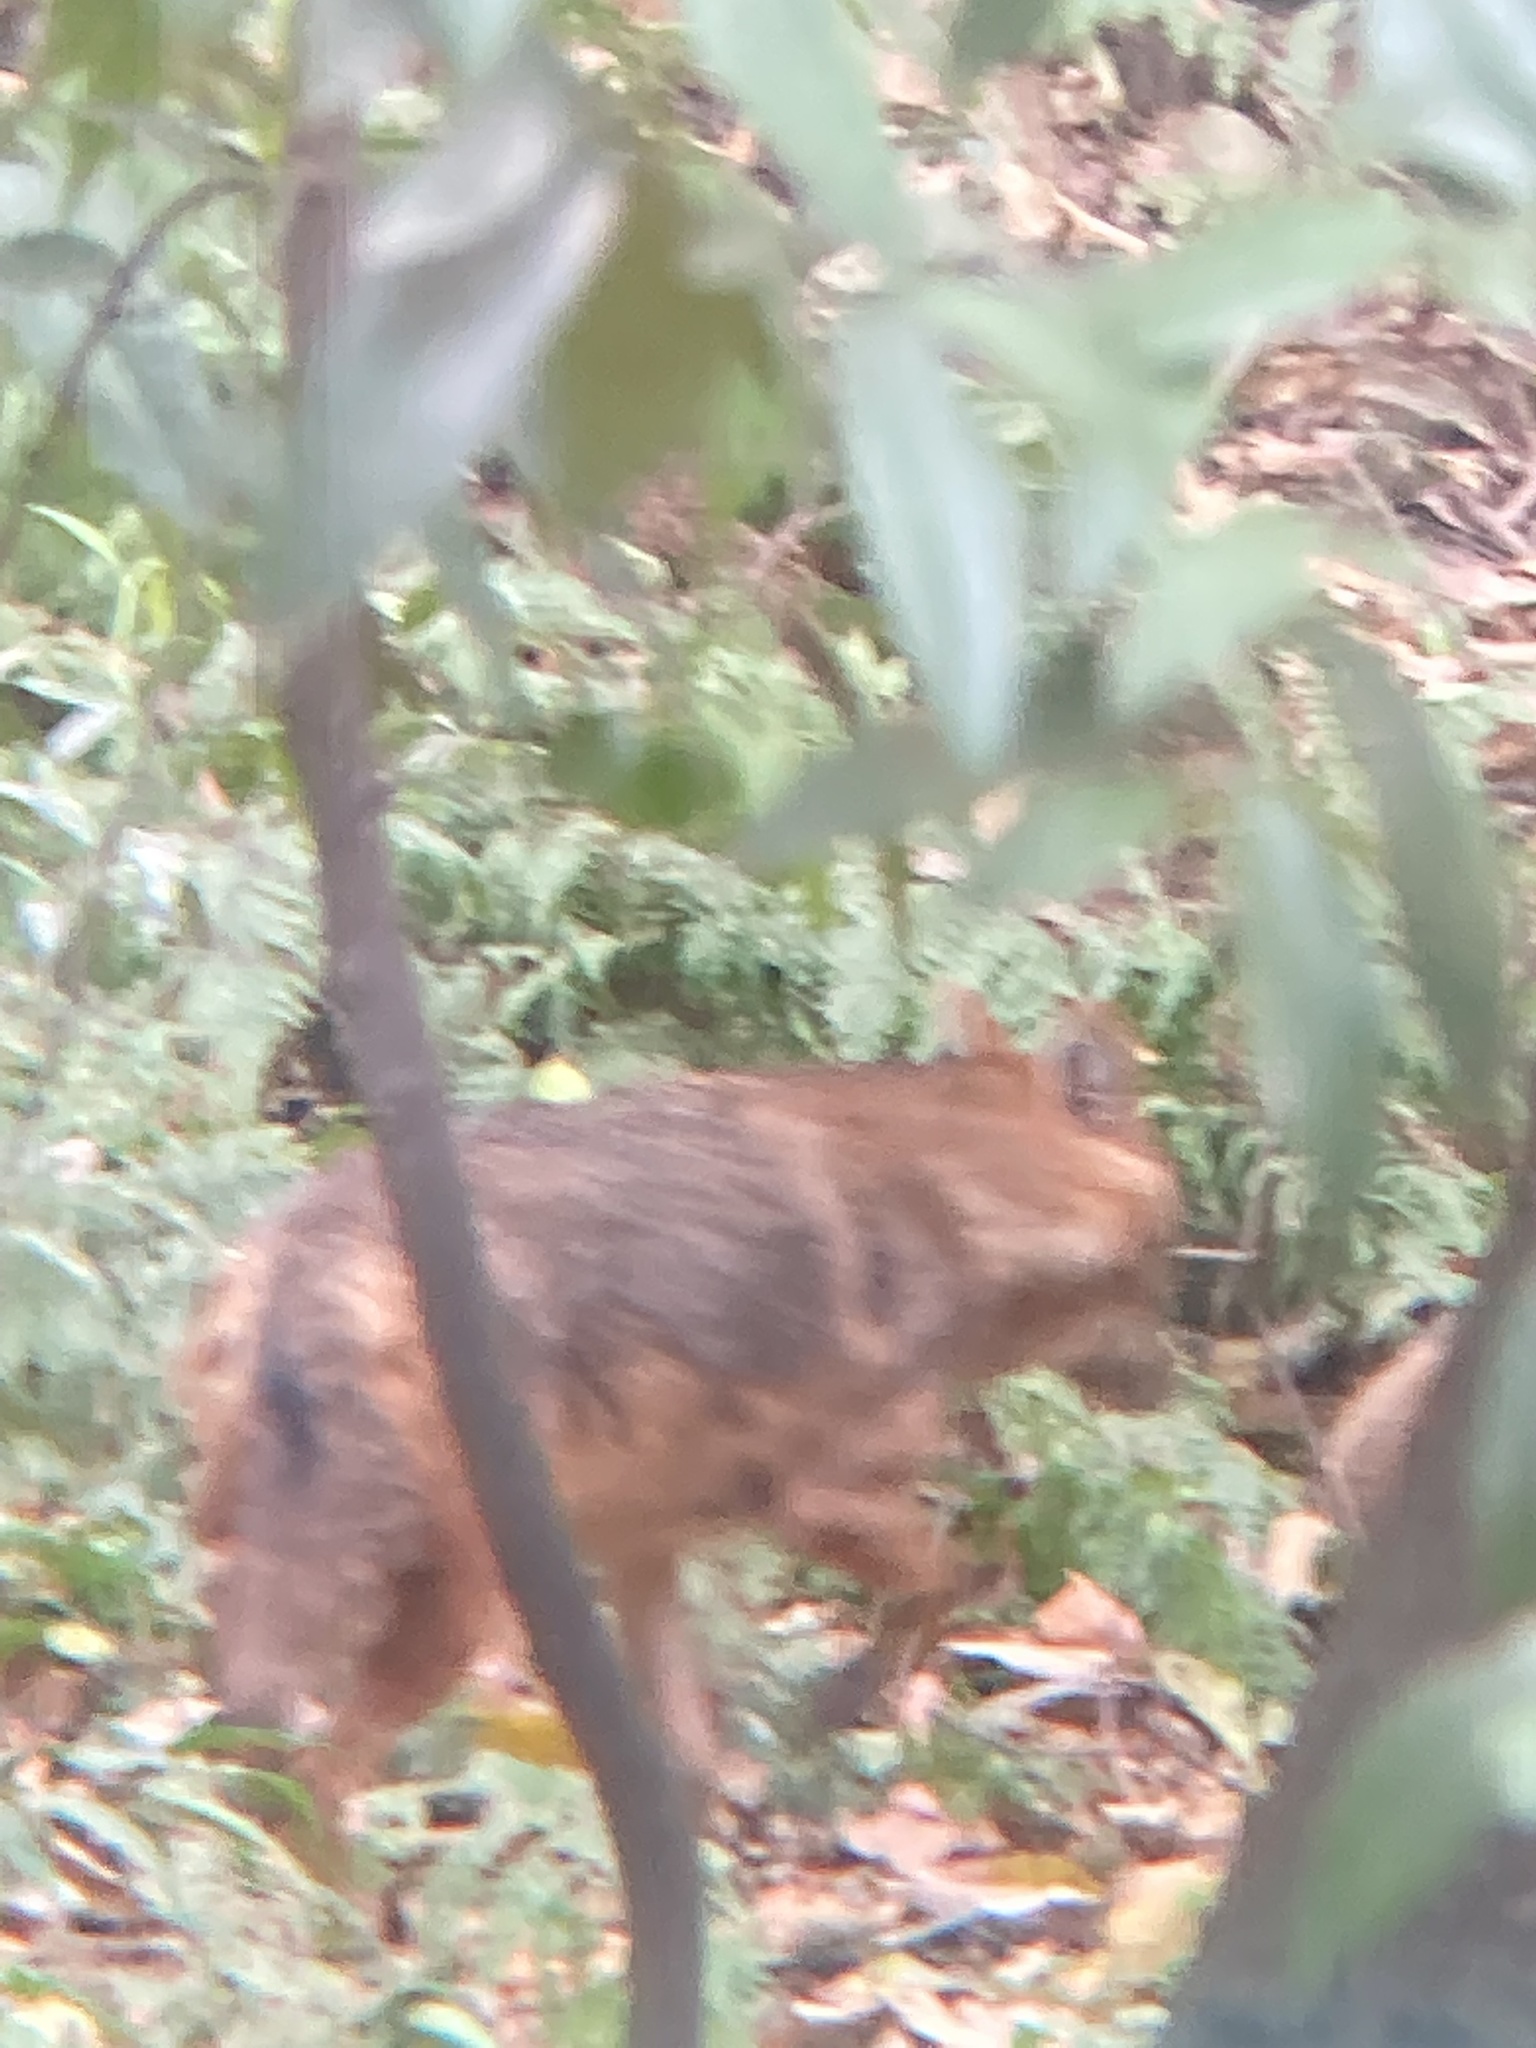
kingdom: Animalia
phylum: Chordata
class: Mammalia
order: Carnivora
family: Canidae
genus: Canis
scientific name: Canis aureus
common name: Golden jackal
